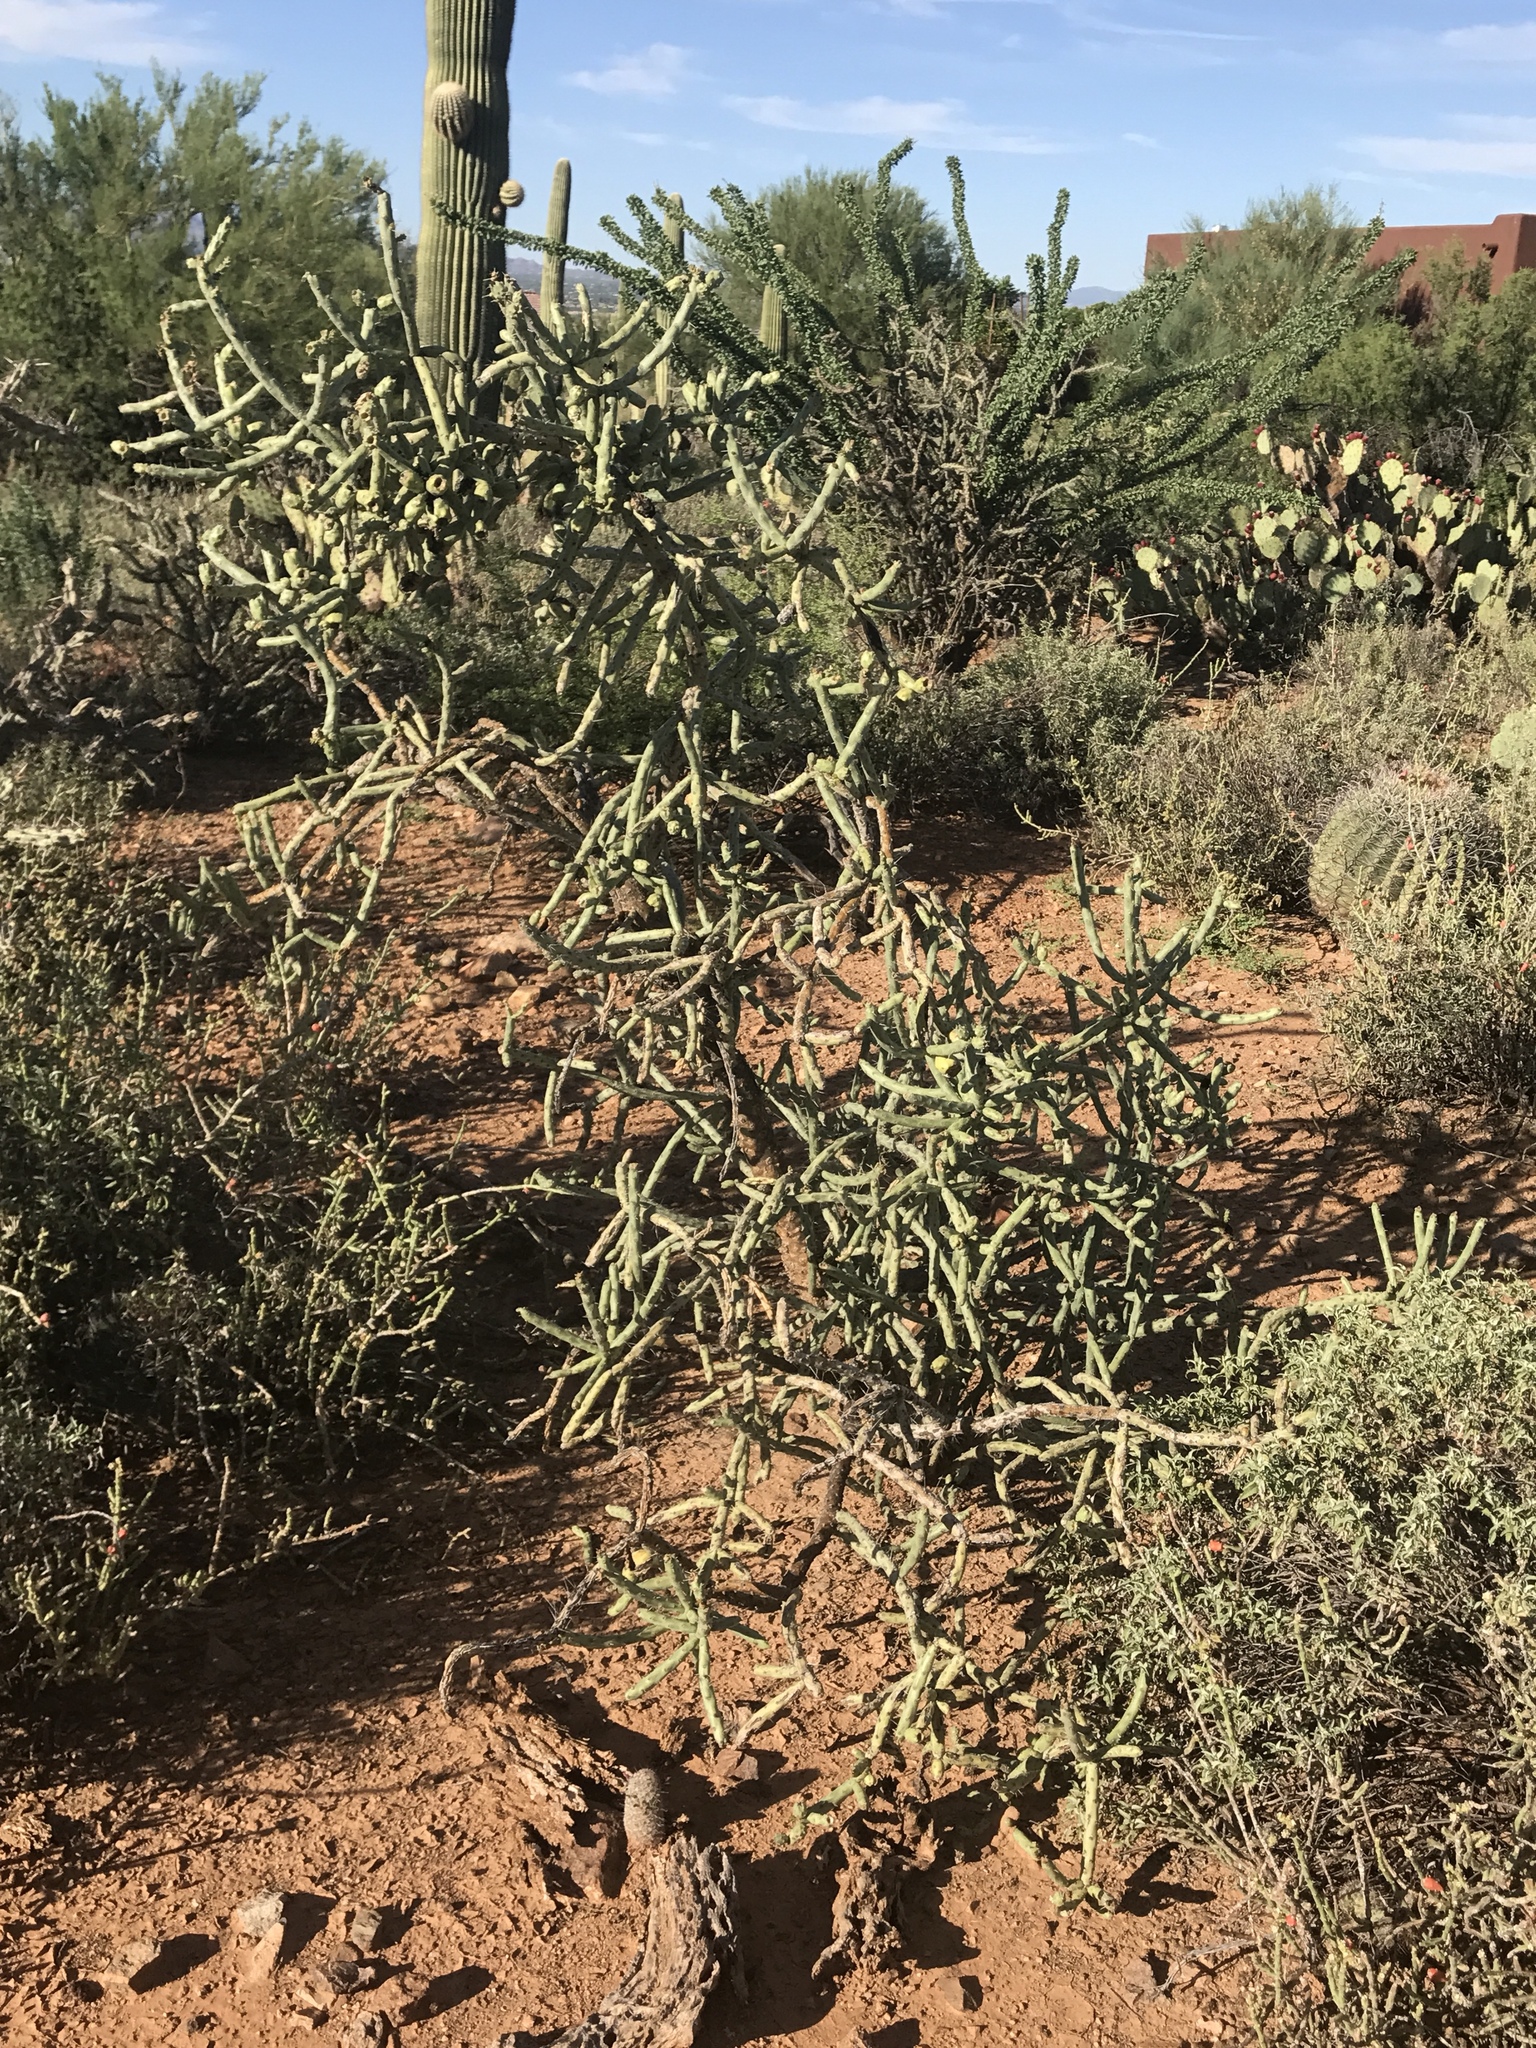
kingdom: Plantae
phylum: Tracheophyta
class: Magnoliopsida
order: Caryophyllales
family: Cactaceae
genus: Cylindropuntia
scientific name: Cylindropuntia arbuscula
